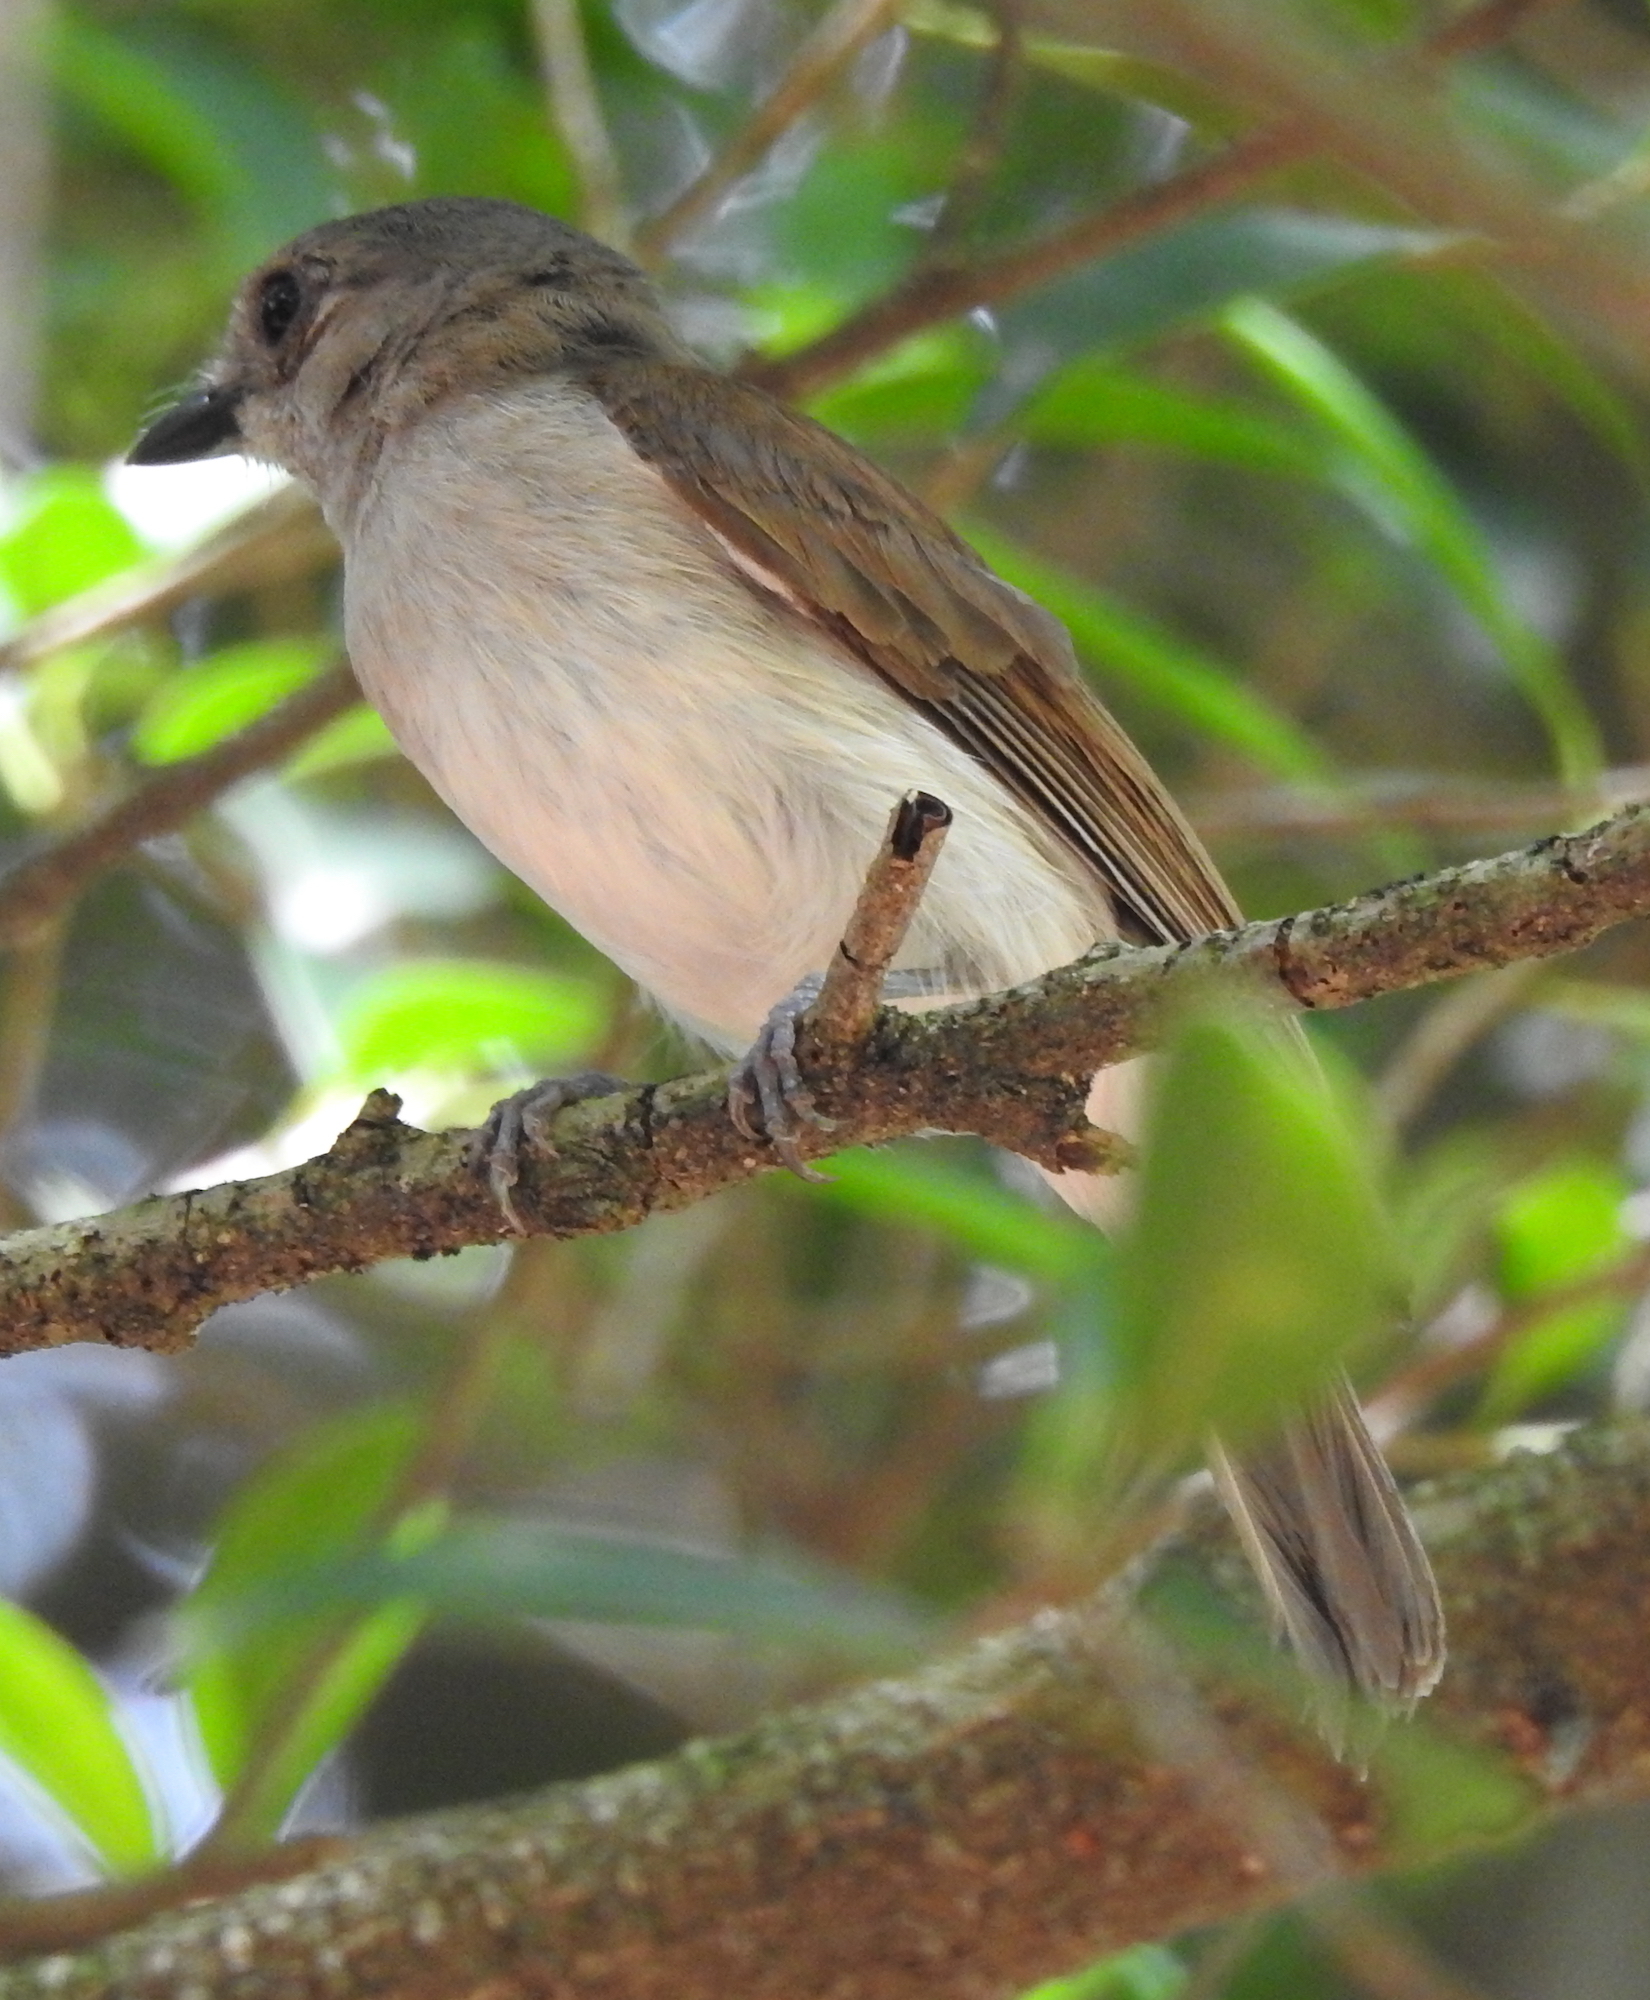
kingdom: Animalia
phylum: Chordata
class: Aves
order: Passeriformes
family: Pachycephalidae
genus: Pachycephala
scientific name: Pachycephala cinerea
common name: Mangrove whistler
